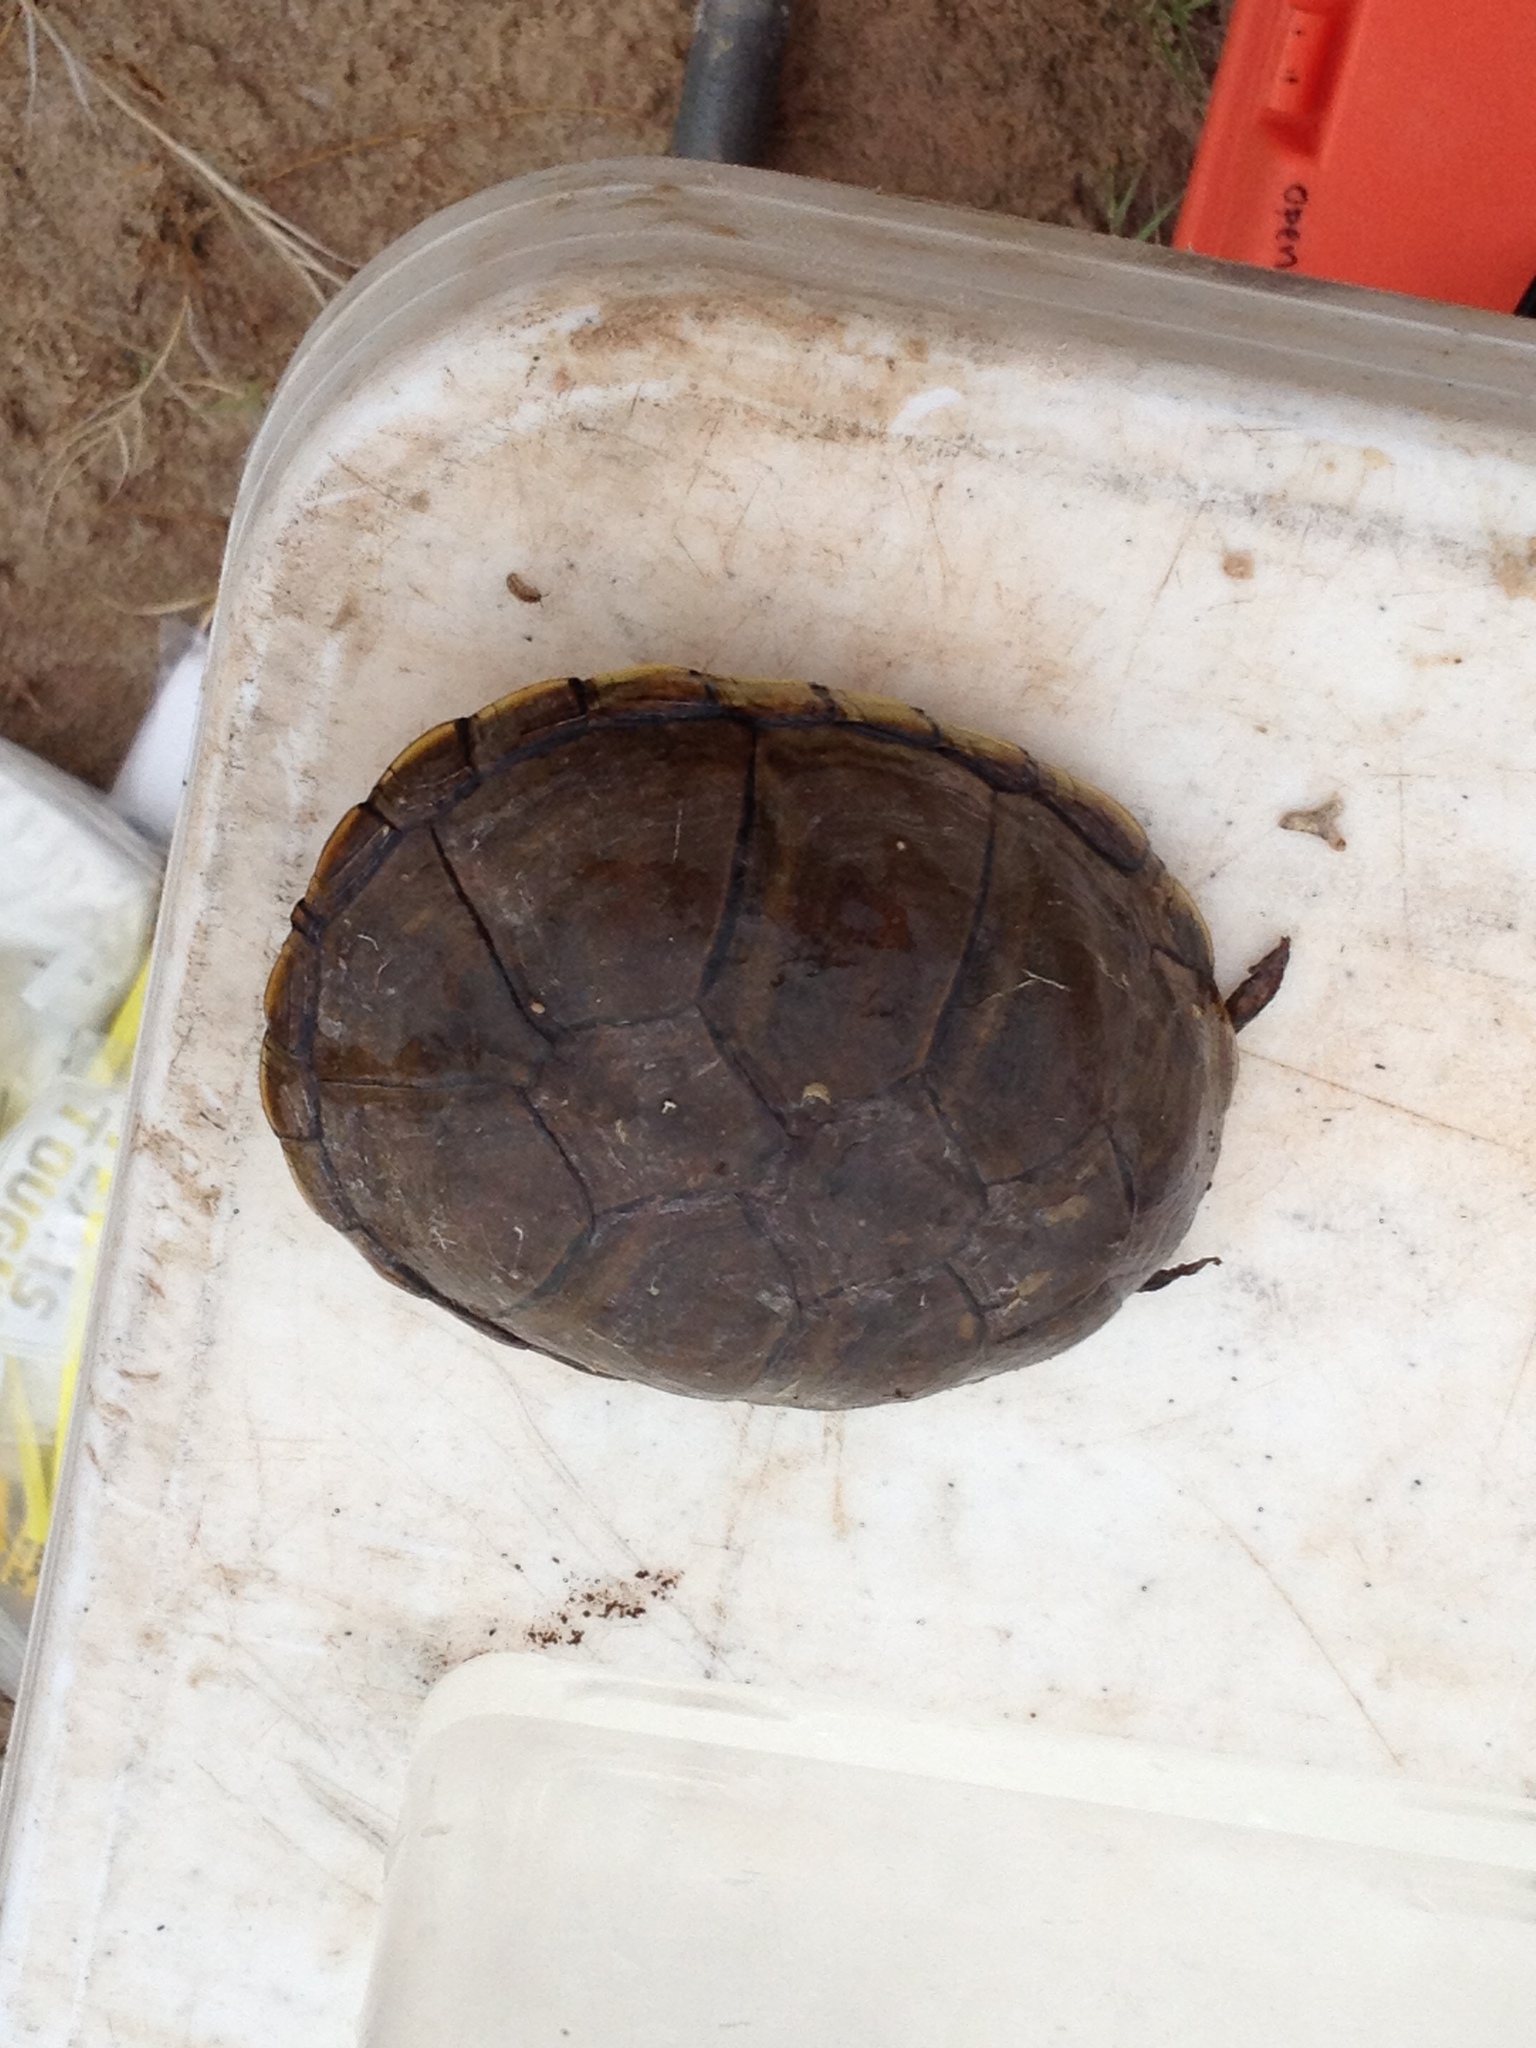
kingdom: Animalia
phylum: Chordata
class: Testudines
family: Kinosternidae
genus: Kinosternon
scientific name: Kinosternon flavescens
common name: Yellow mud turtle
